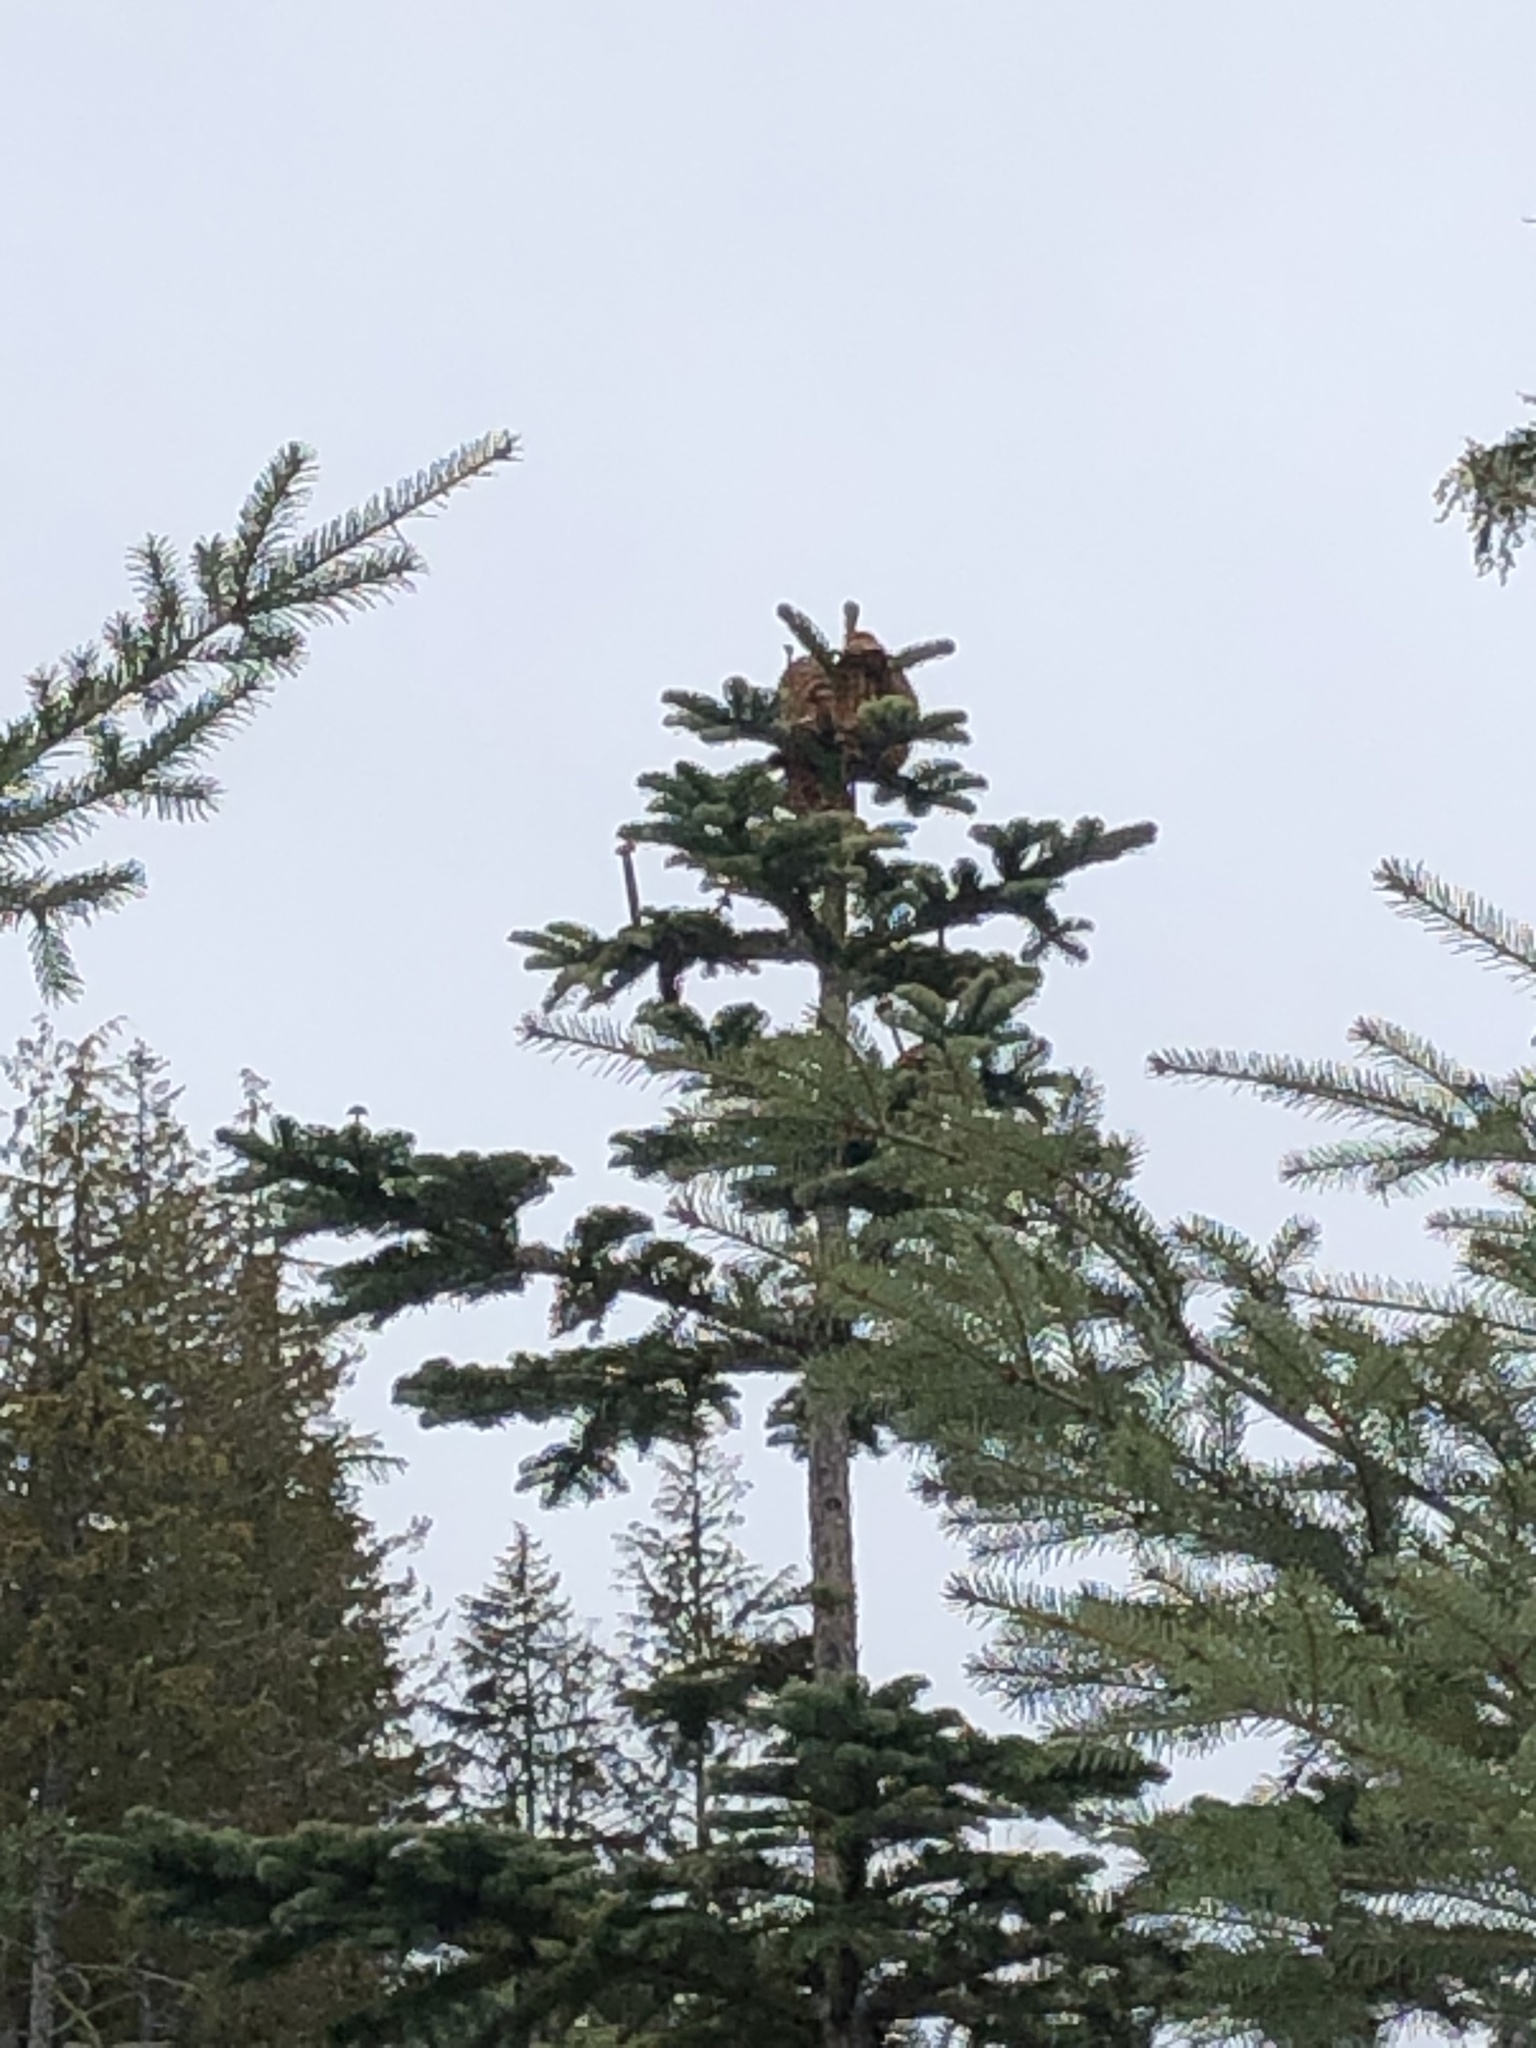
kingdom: Plantae
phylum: Tracheophyta
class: Pinopsida
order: Pinales
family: Pinaceae
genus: Abies
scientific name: Abies procera
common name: Noble fir
